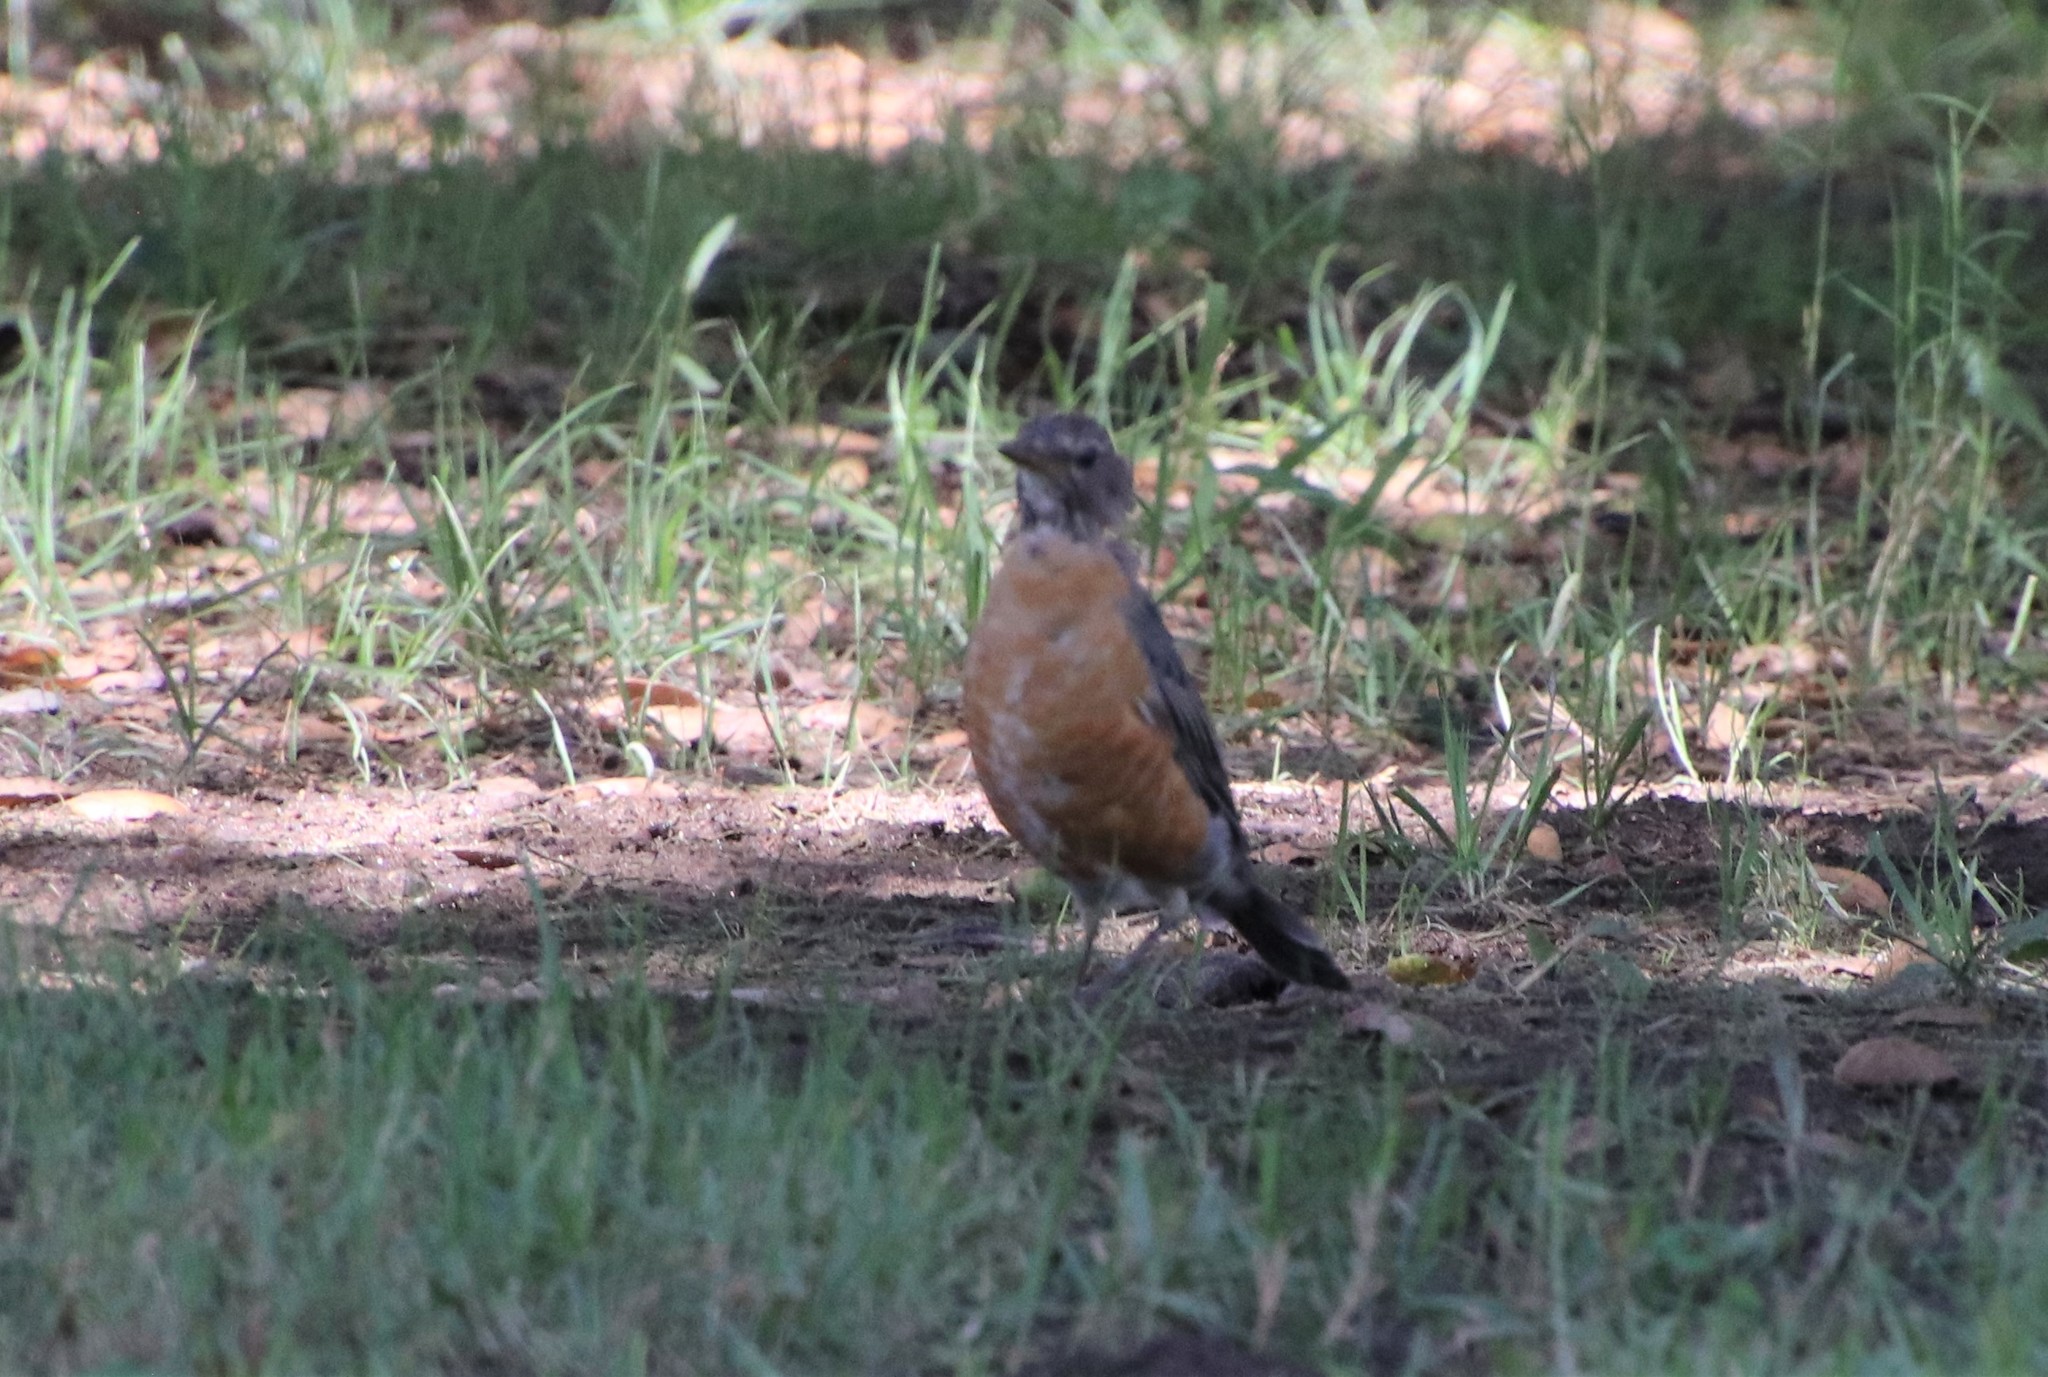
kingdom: Animalia
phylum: Chordata
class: Aves
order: Passeriformes
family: Turdidae
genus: Turdus
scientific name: Turdus migratorius
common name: American robin
